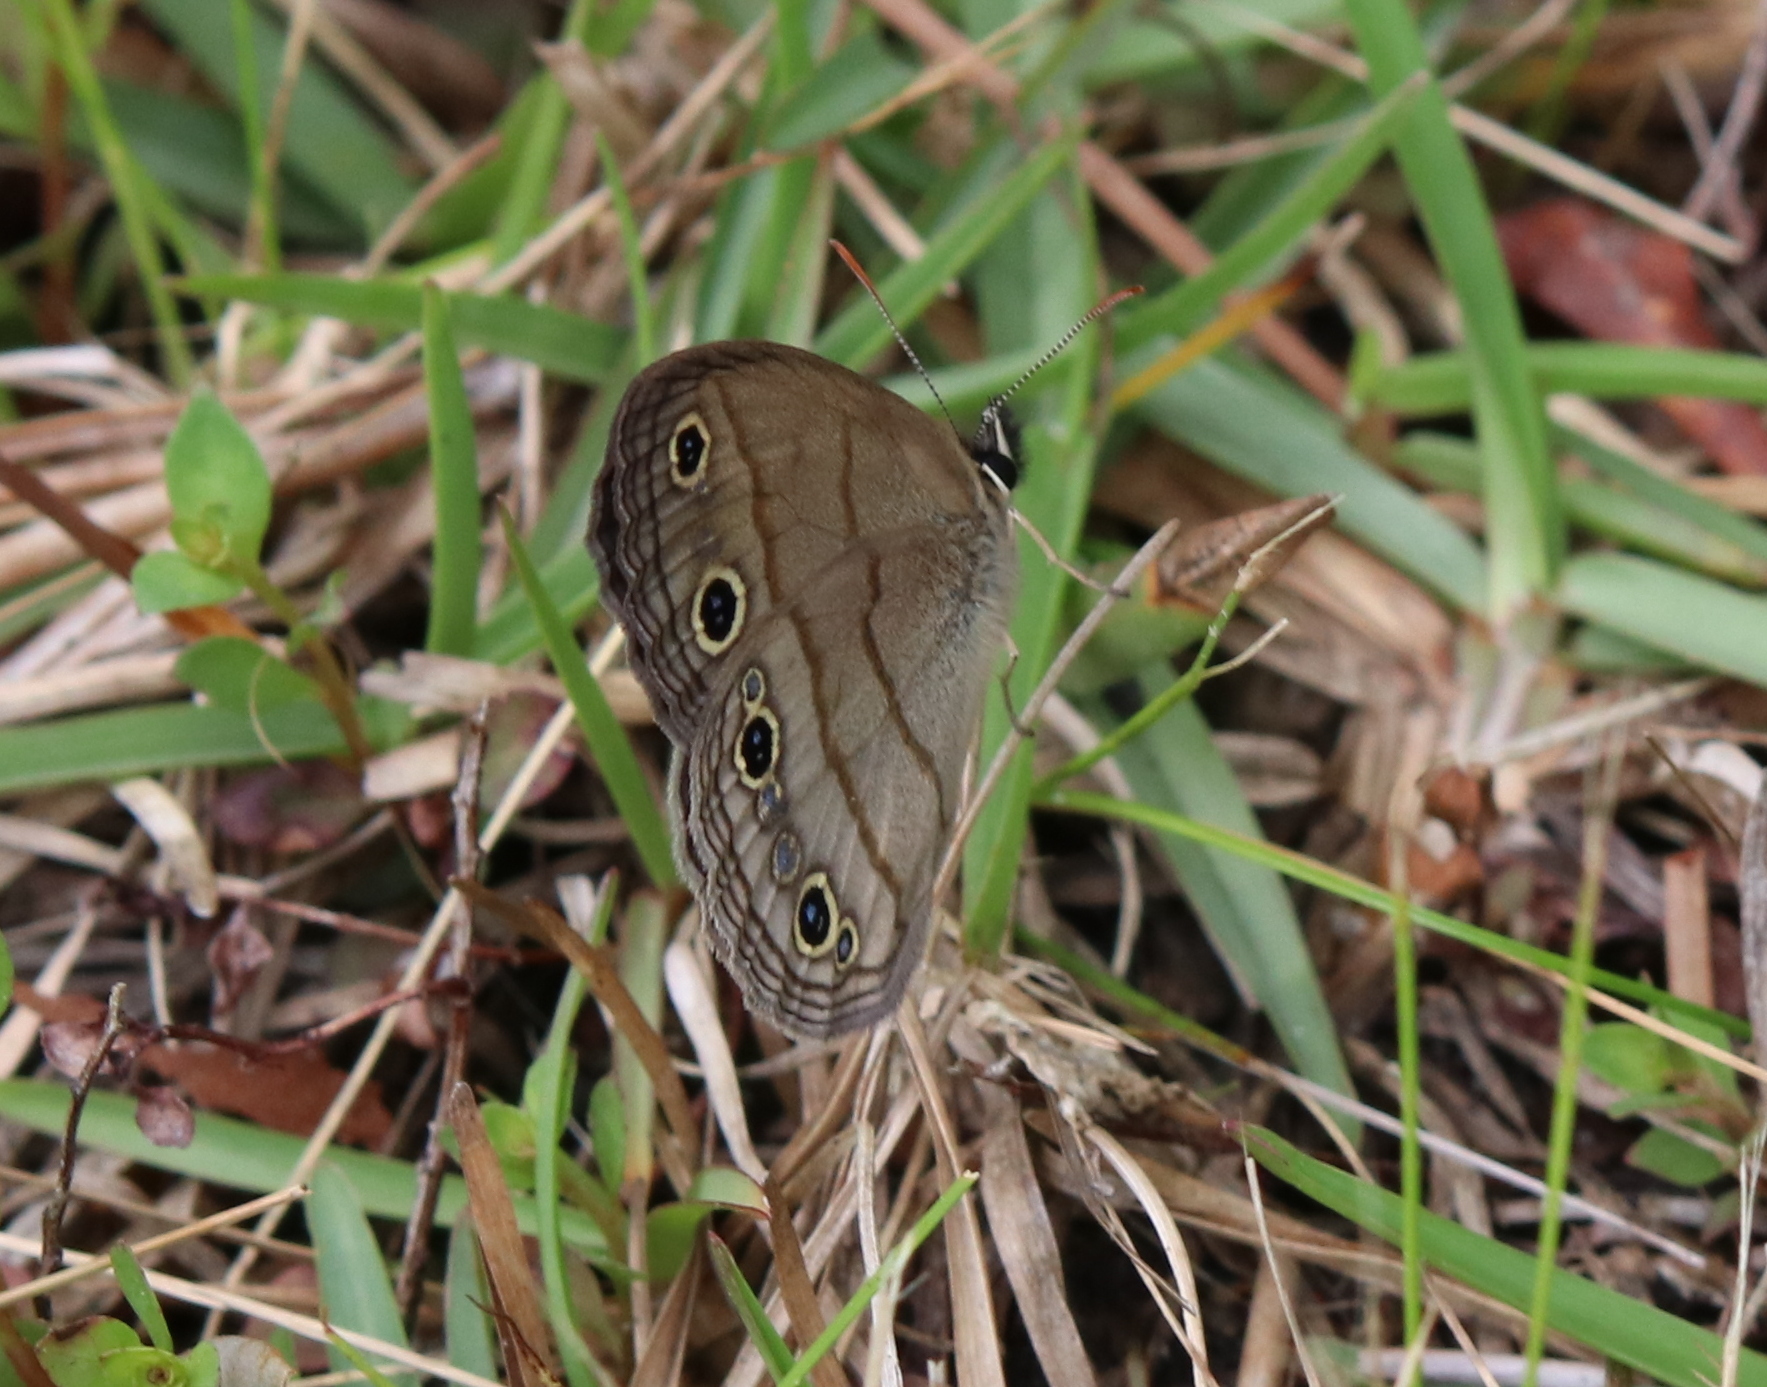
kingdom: Animalia
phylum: Arthropoda
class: Insecta
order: Lepidoptera
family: Nymphalidae
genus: Euptychia
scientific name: Euptychia cymela
